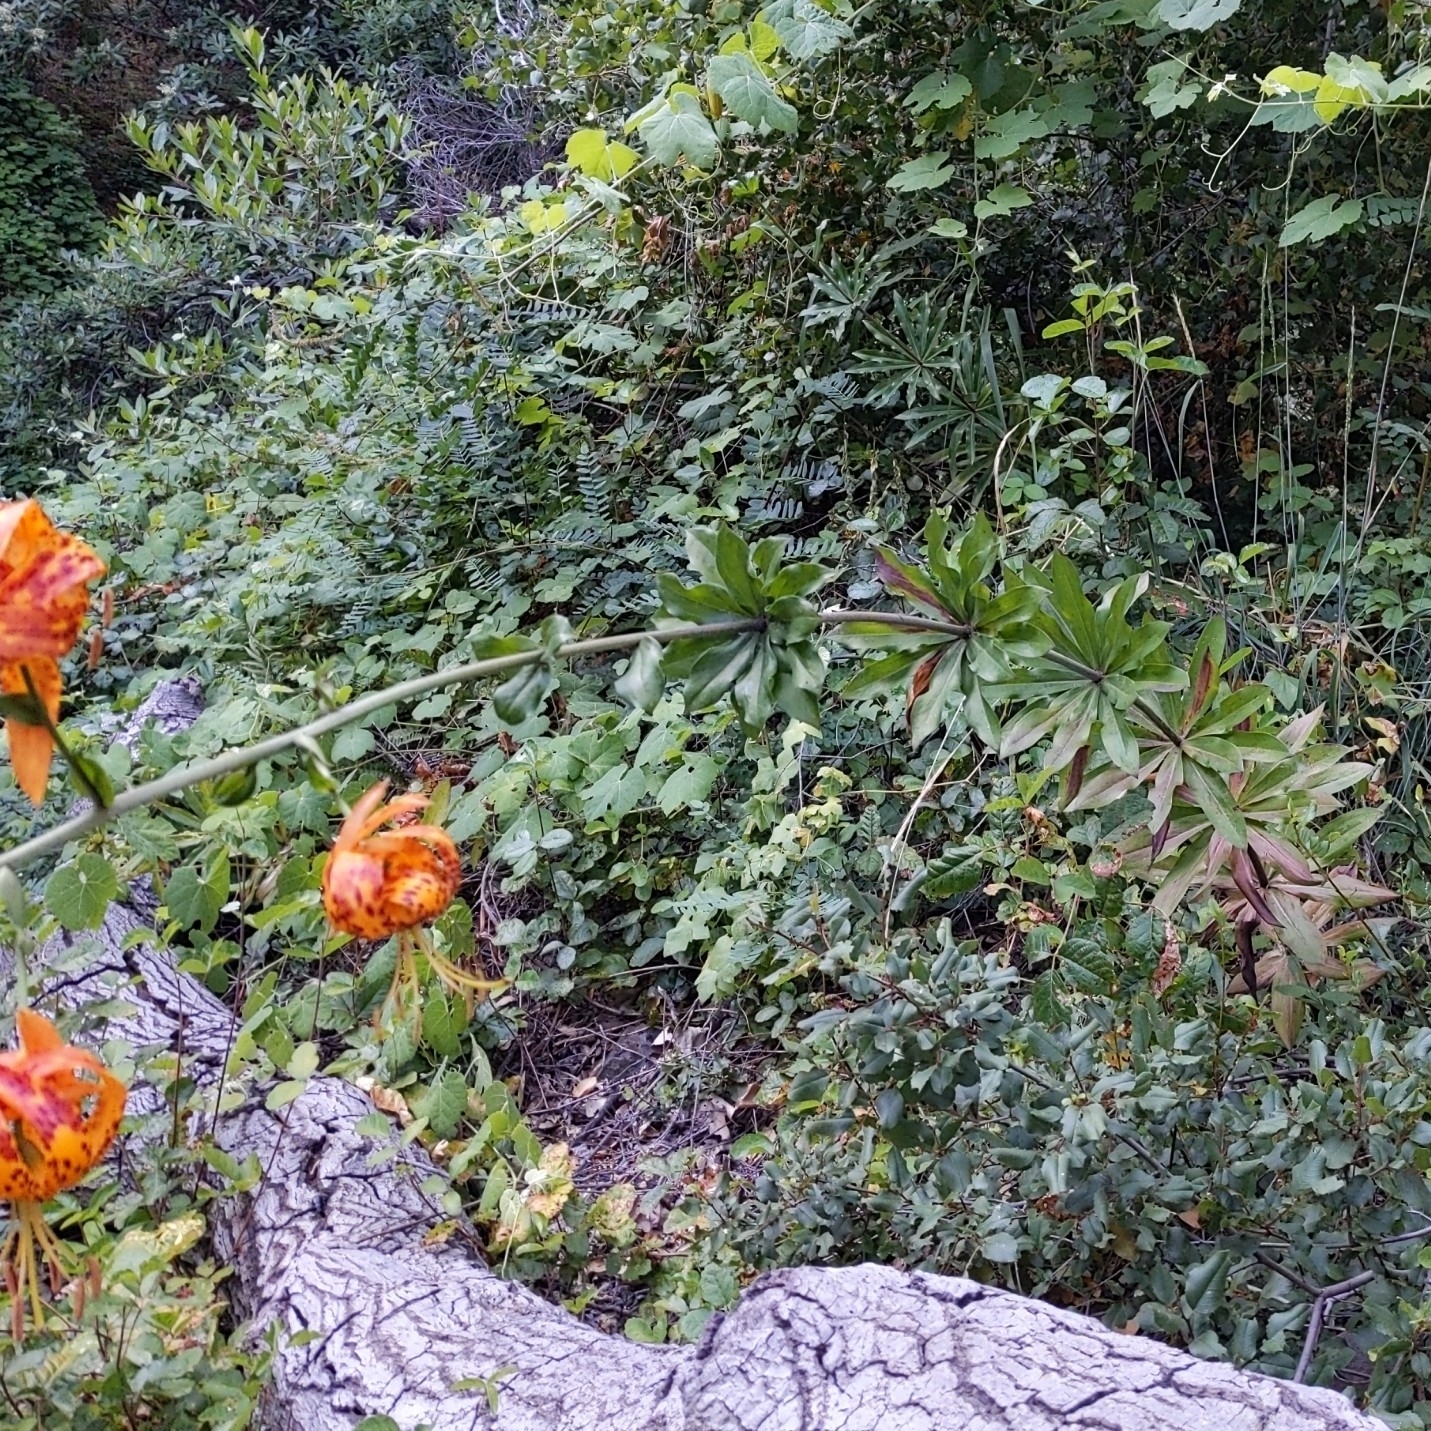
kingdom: Plantae
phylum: Tracheophyta
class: Liliopsida
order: Liliales
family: Liliaceae
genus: Lilium
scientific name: Lilium humboldtii
